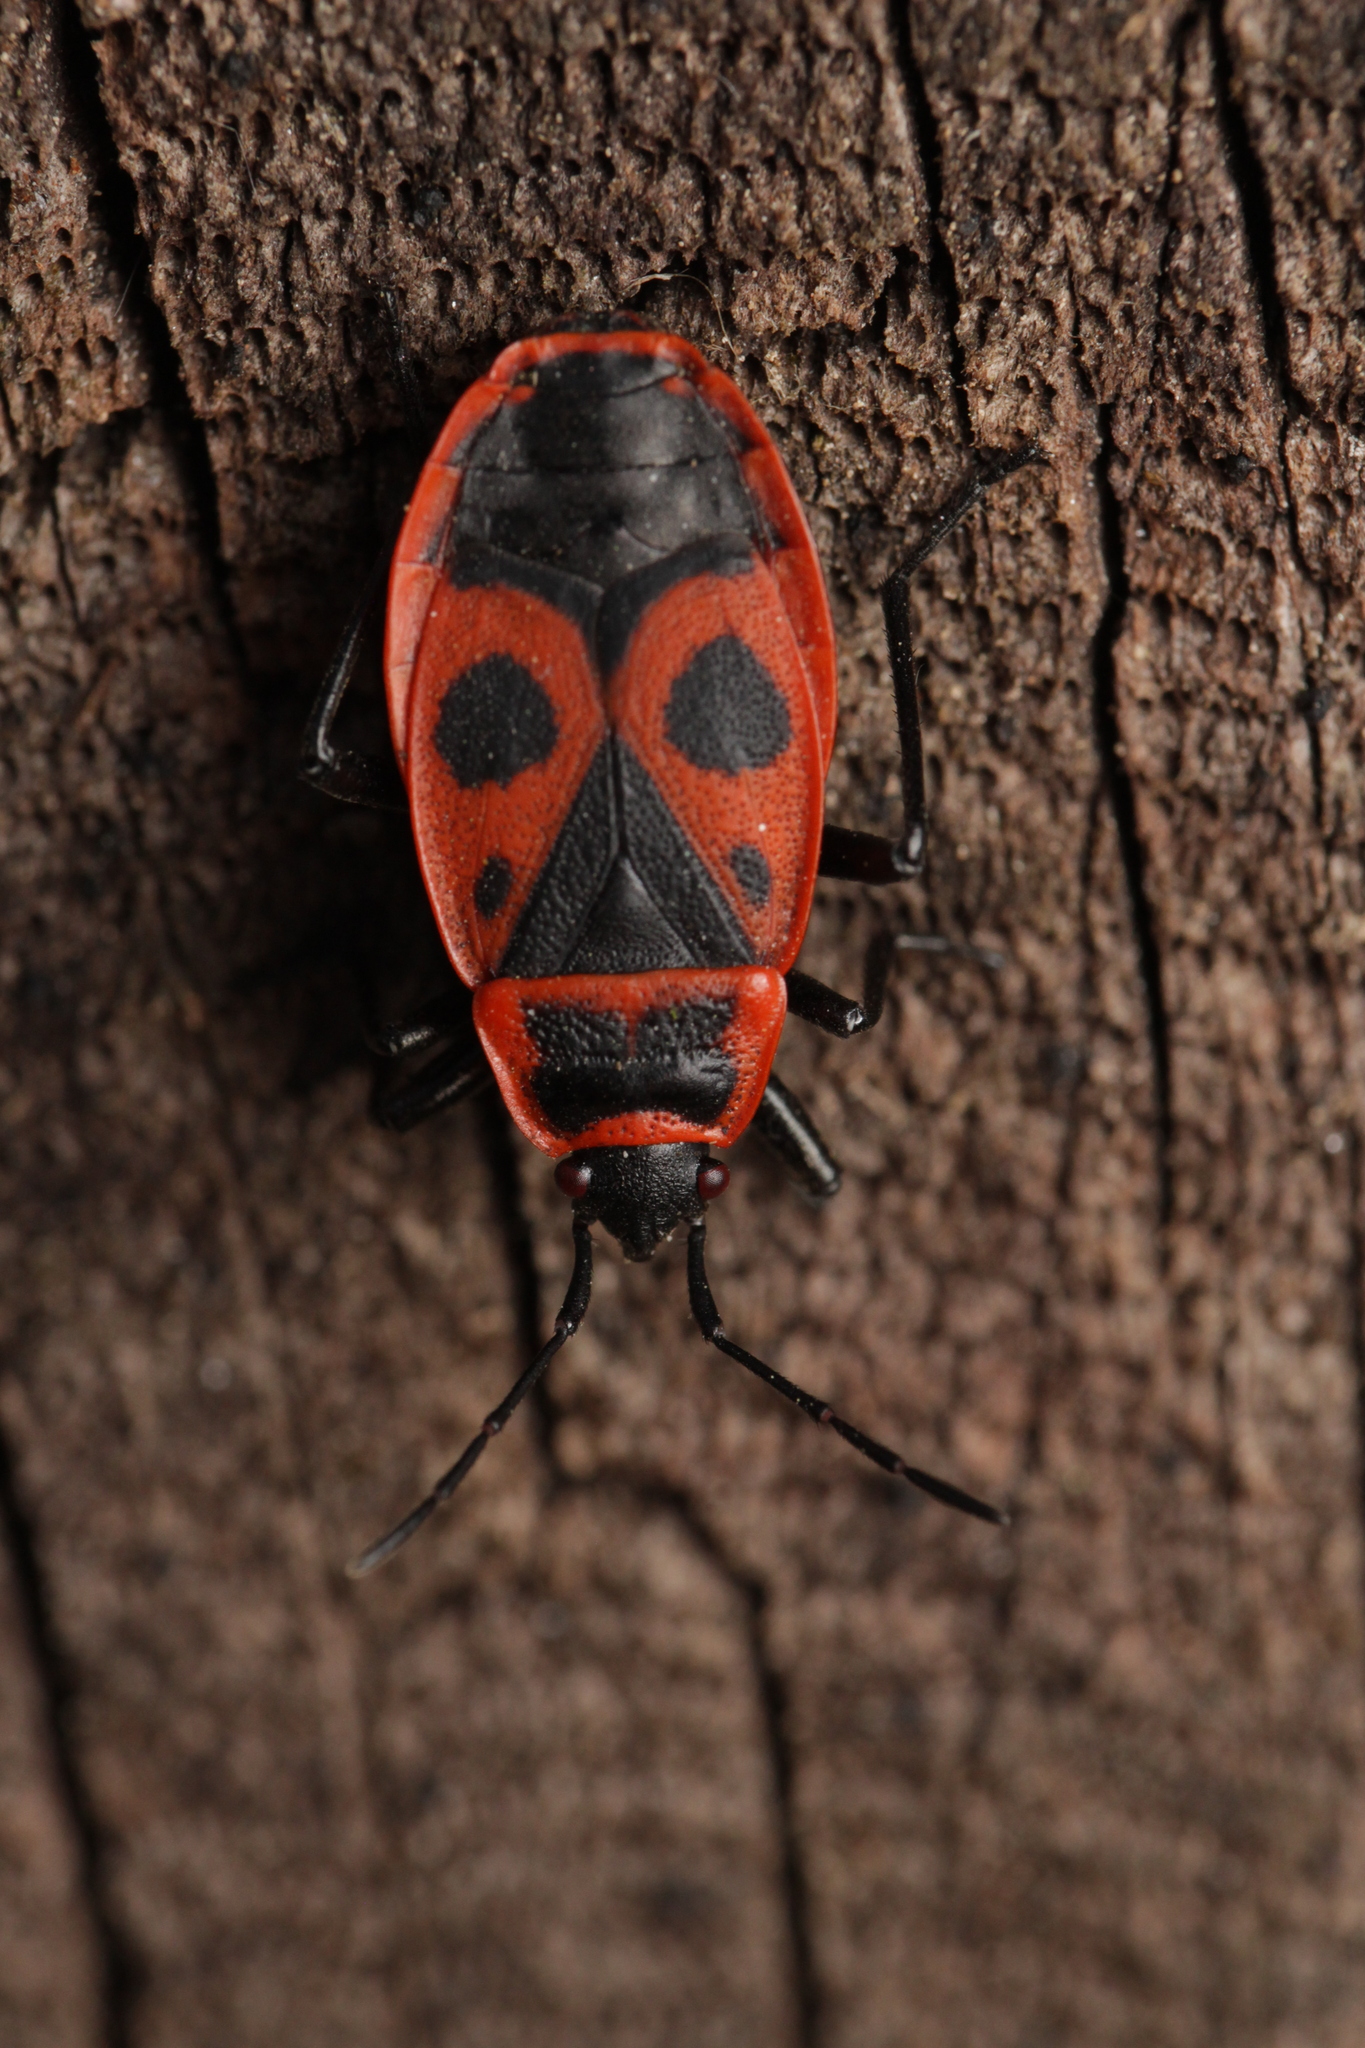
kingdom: Animalia
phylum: Arthropoda
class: Insecta
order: Hemiptera
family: Pyrrhocoridae
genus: Pyrrhocoris
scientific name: Pyrrhocoris apterus
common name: Firebug
